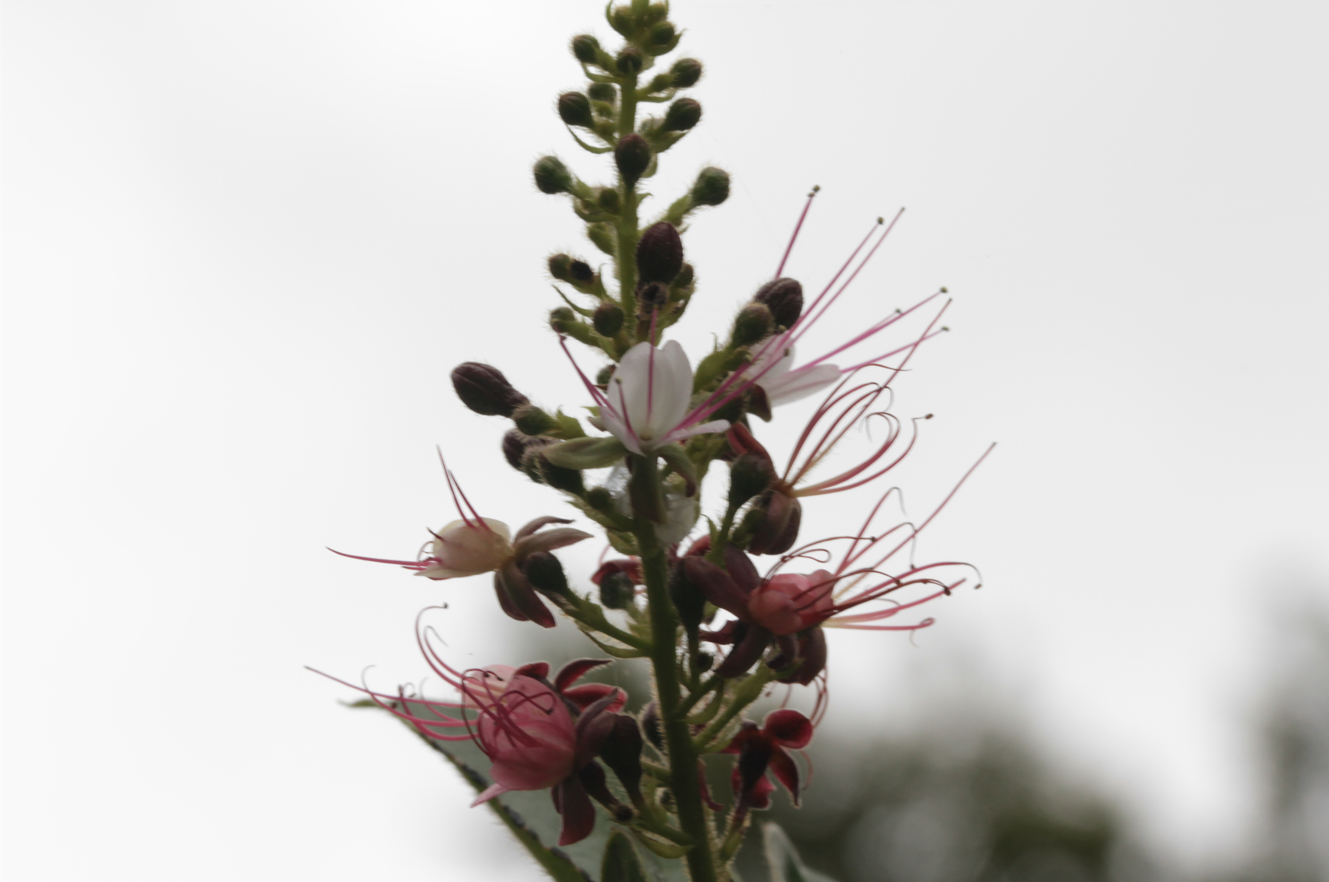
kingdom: Plantae
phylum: Tracheophyta
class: Magnoliopsida
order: Malpighiales
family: Chrysobalanaceae
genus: Hirtella
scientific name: Hirtella paniculata
